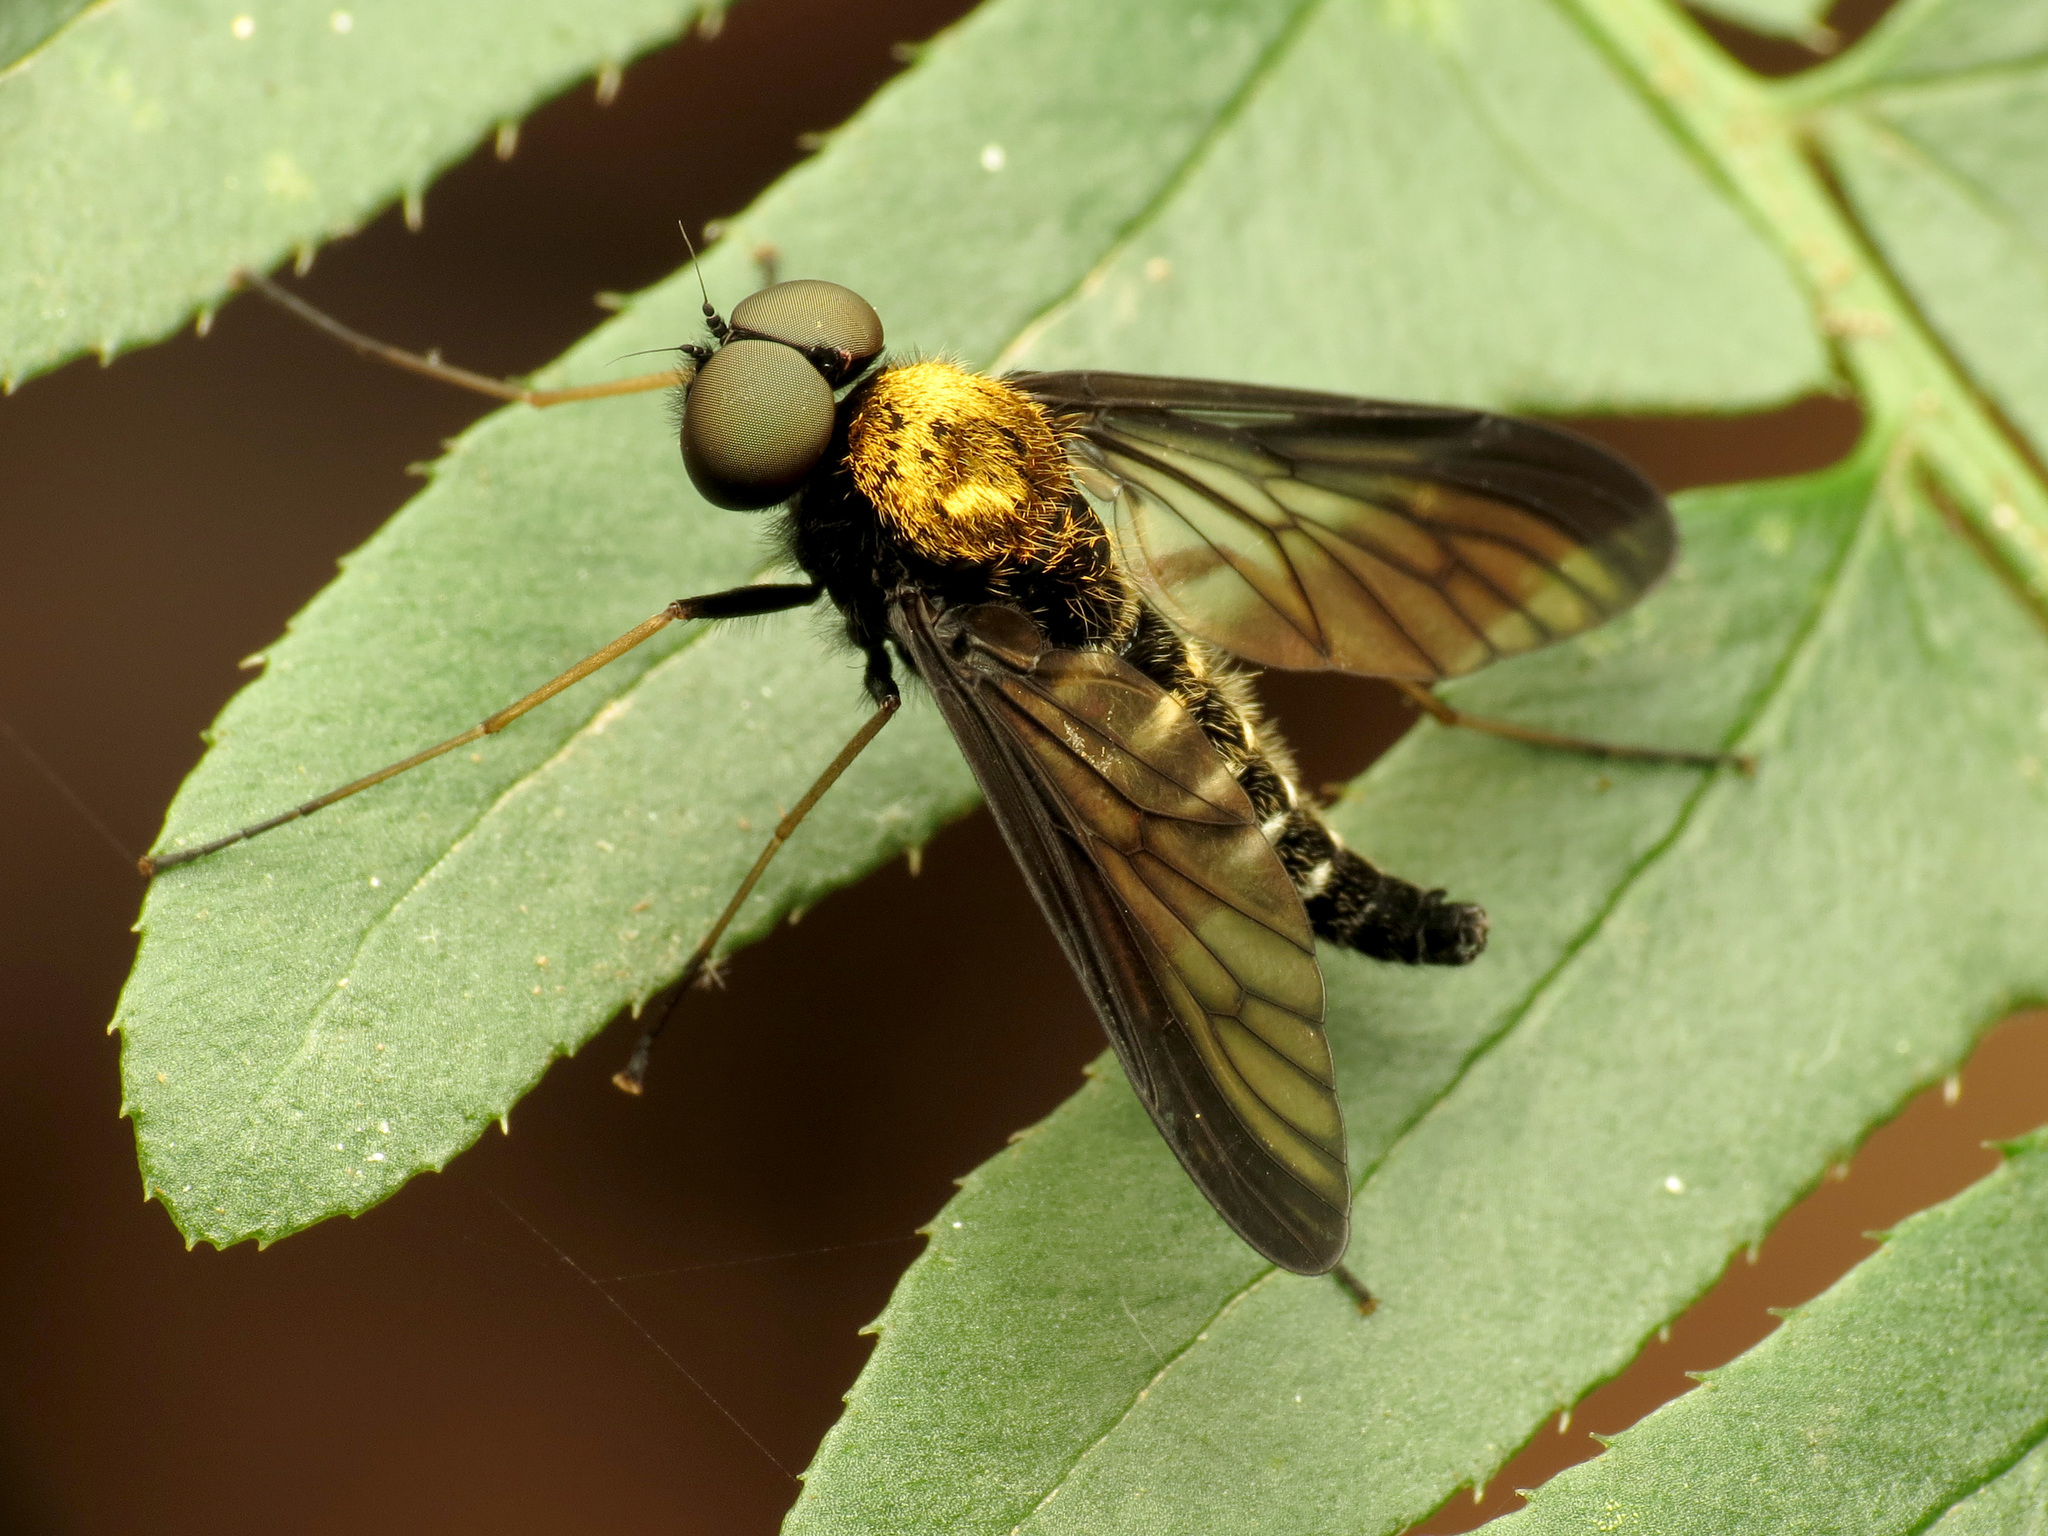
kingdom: Animalia
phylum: Arthropoda
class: Insecta
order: Diptera
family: Rhagionidae
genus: Chrysopilus
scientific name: Chrysopilus thoracicus
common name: Golden-backed snipe fly
